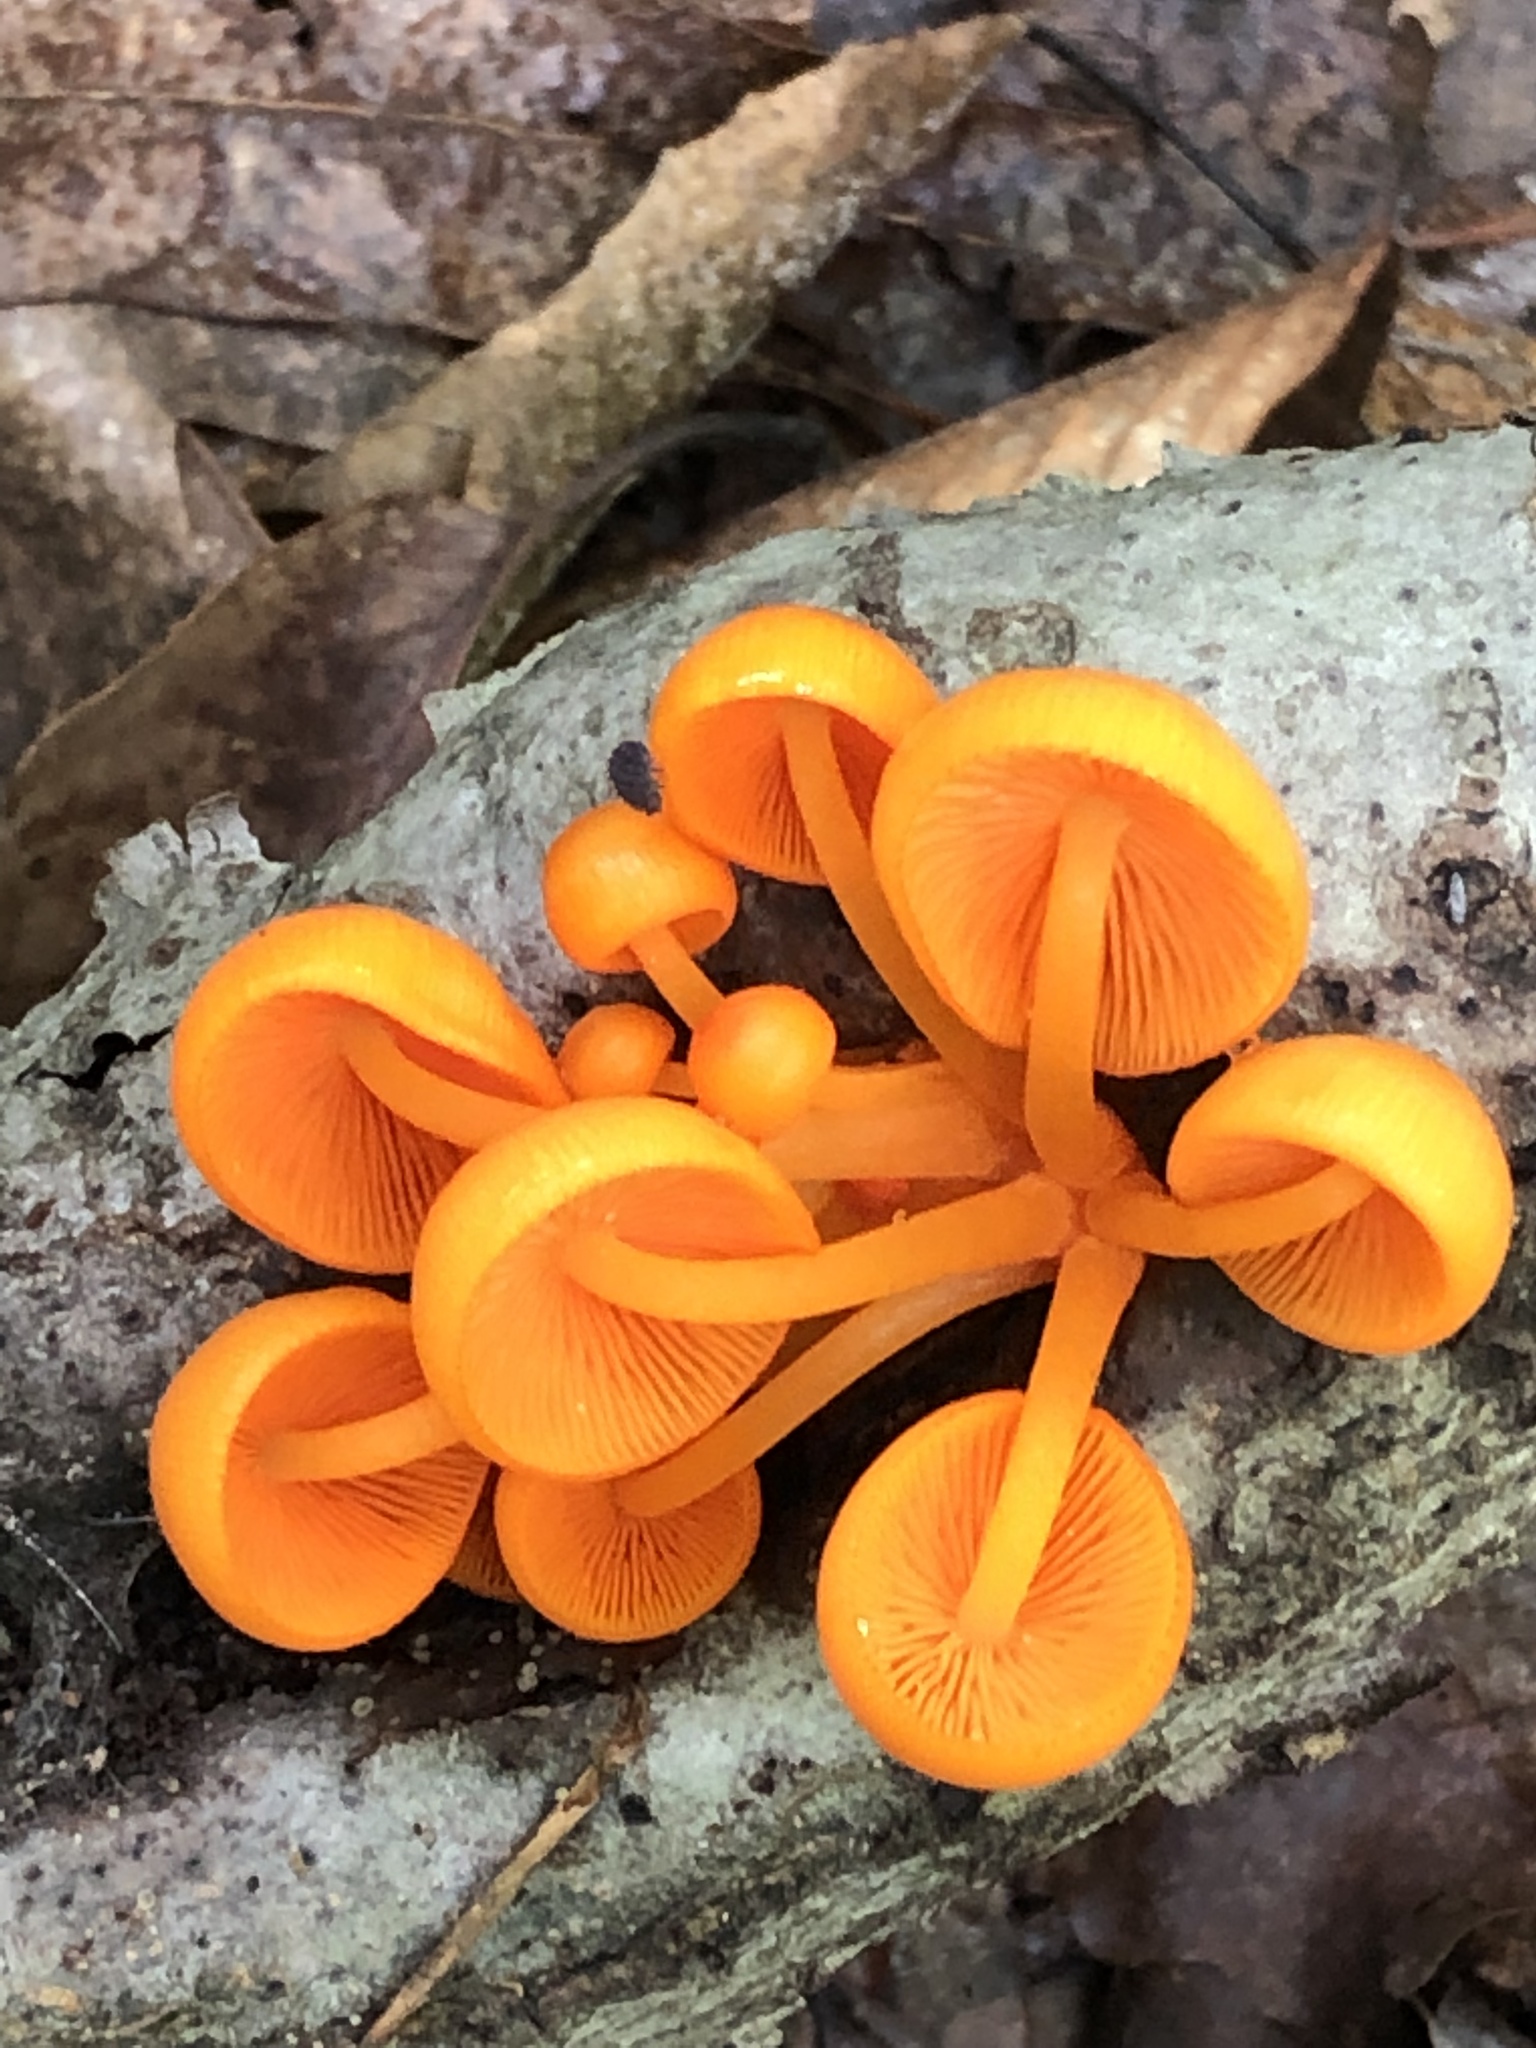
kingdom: Fungi
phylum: Basidiomycota
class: Agaricomycetes
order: Agaricales
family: Mycenaceae
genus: Mycena
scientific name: Mycena leaiana
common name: Orange mycena
